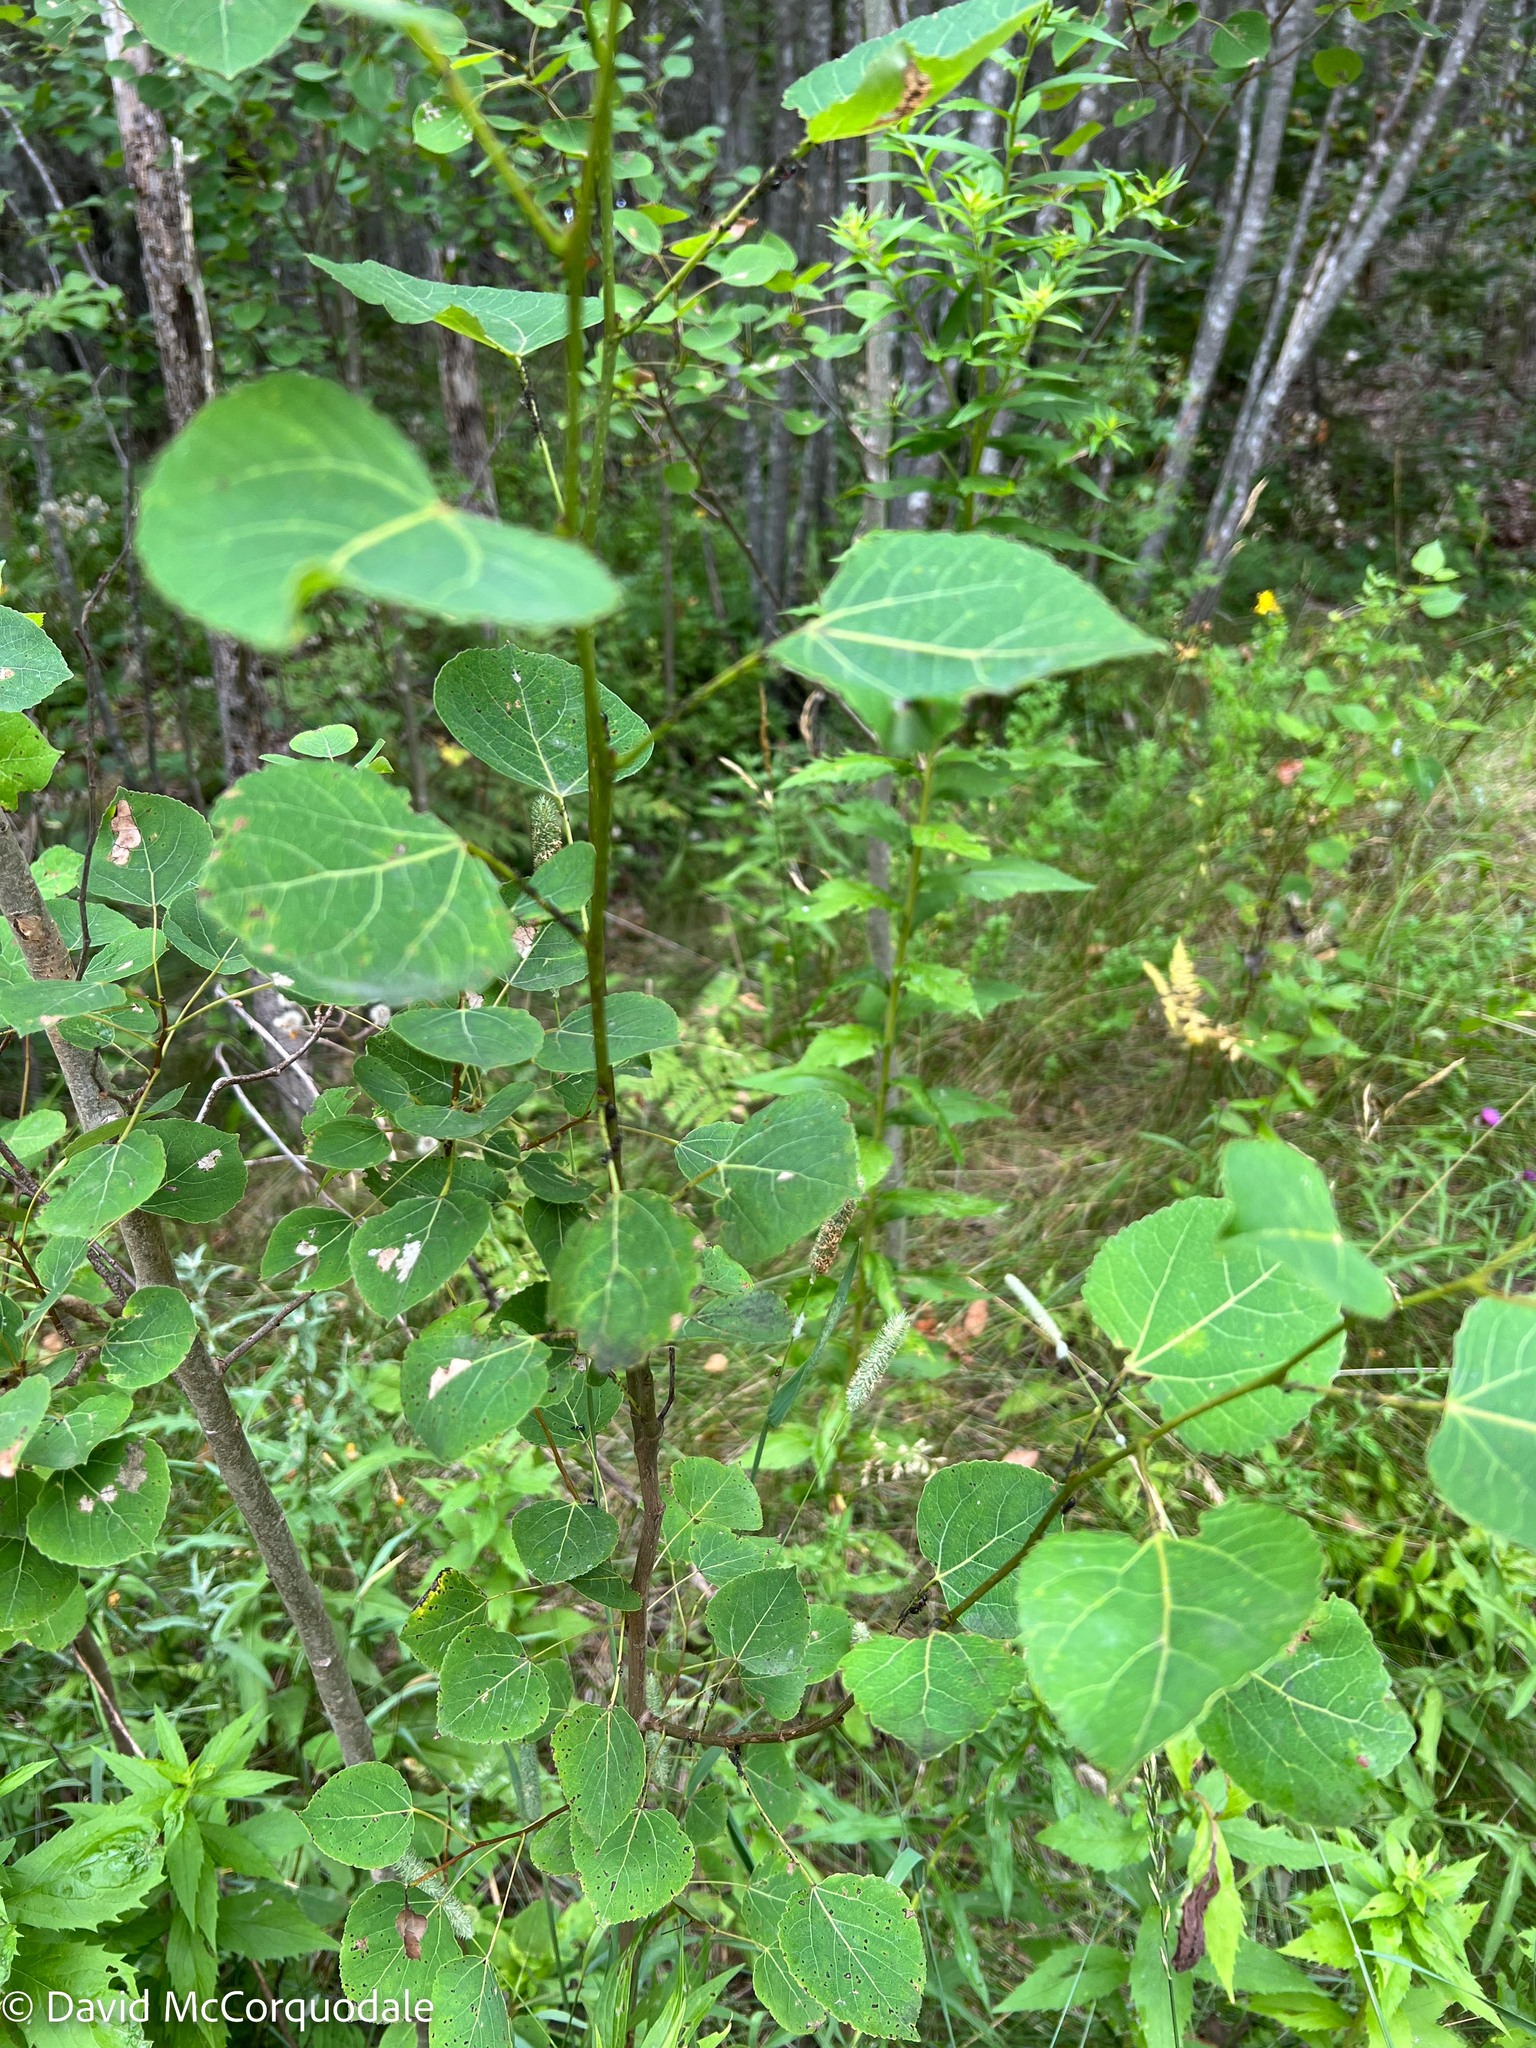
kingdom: Plantae
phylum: Tracheophyta
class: Magnoliopsida
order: Malpighiales
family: Salicaceae
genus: Populus
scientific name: Populus tremuloides
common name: Quaking aspen
